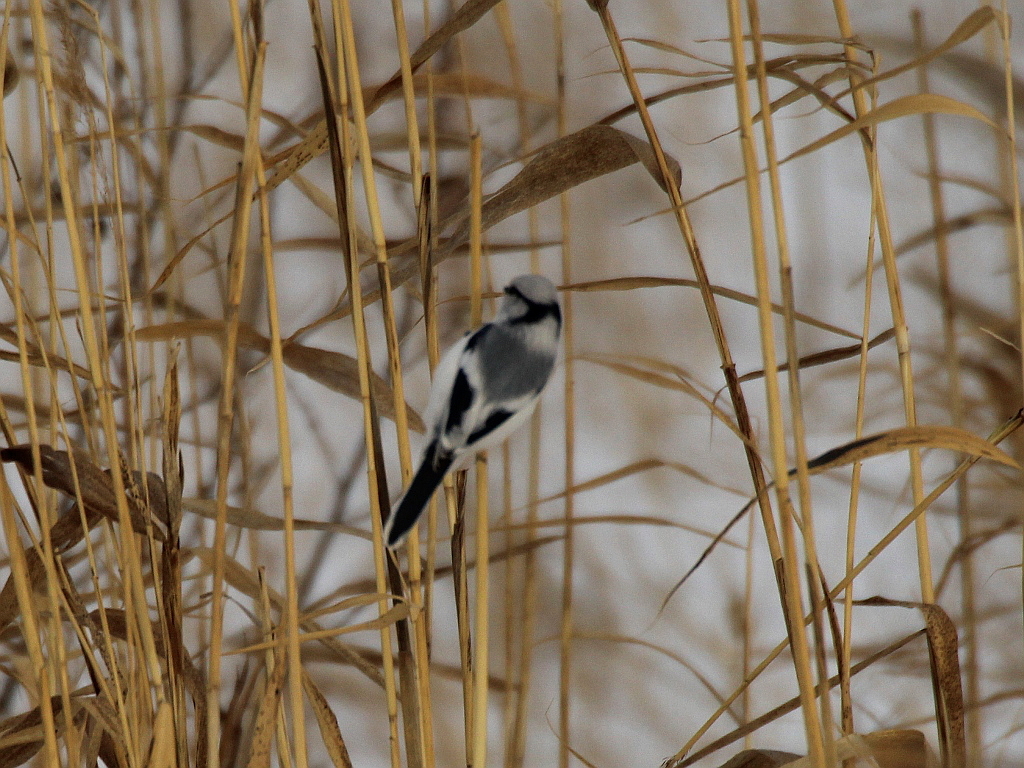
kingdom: Animalia
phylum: Chordata
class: Aves
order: Passeriformes
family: Paridae
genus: Cyanistes
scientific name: Cyanistes cyanus
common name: Azure tit
